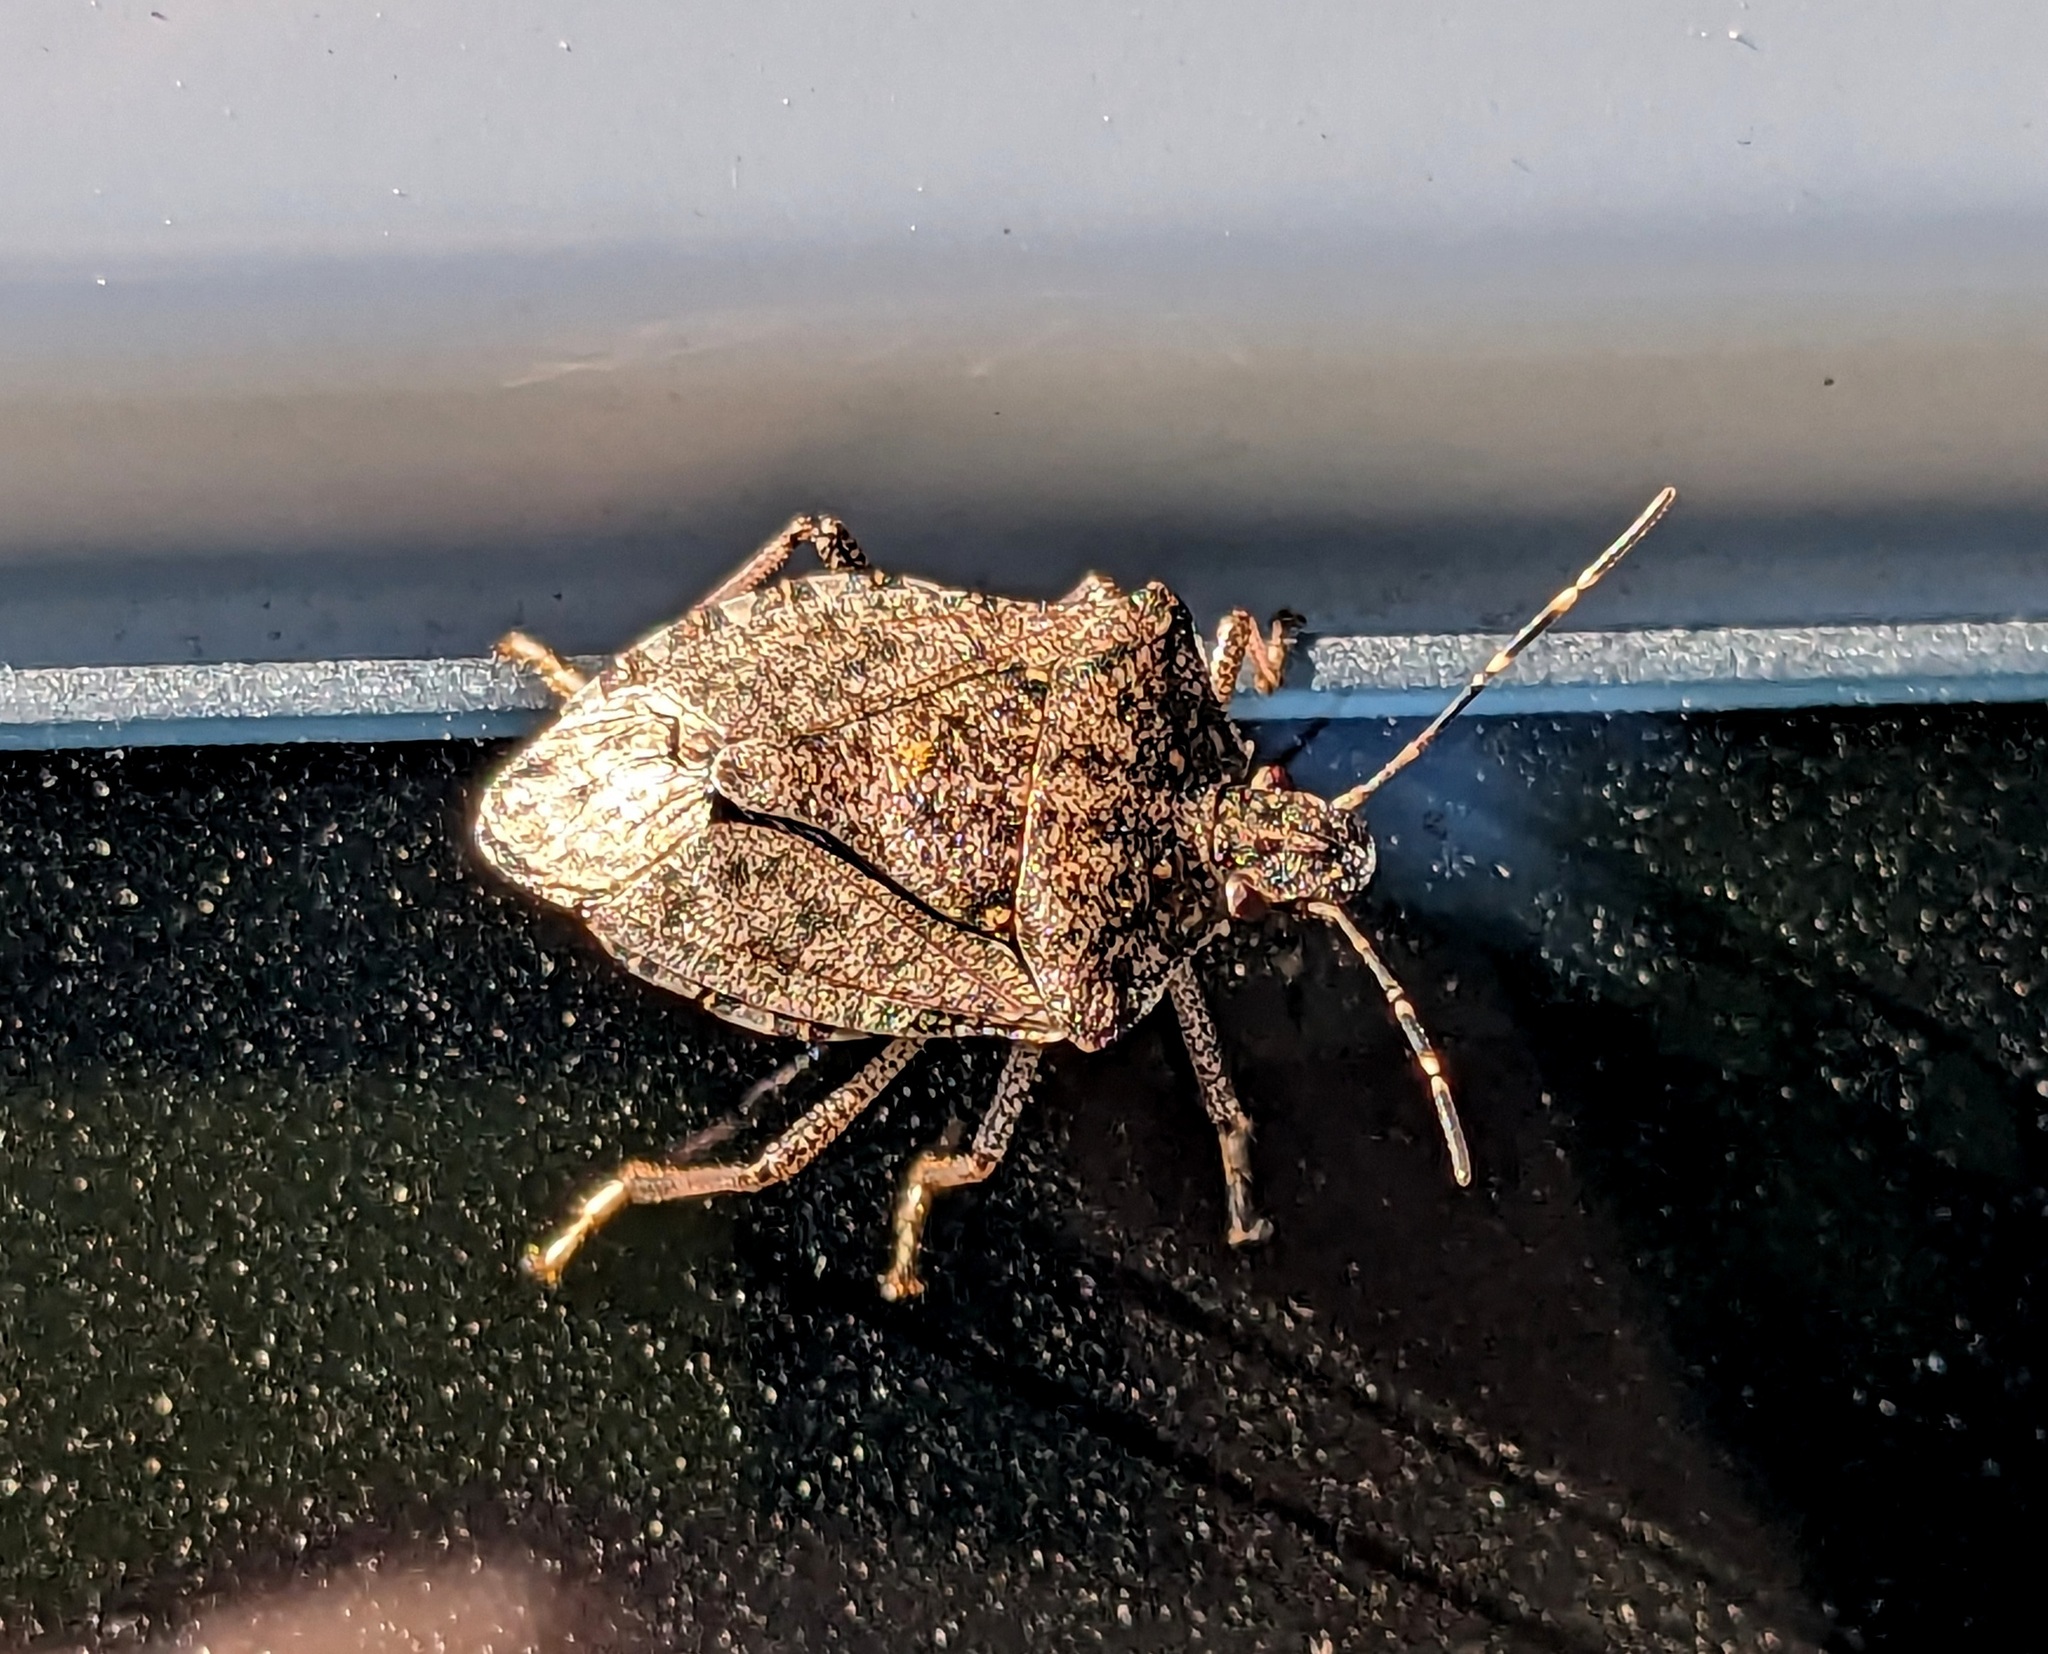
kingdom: Animalia
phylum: Arthropoda
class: Insecta
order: Hemiptera
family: Pentatomidae
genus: Halyomorpha
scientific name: Halyomorpha halys
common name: Brown marmorated stink bug
